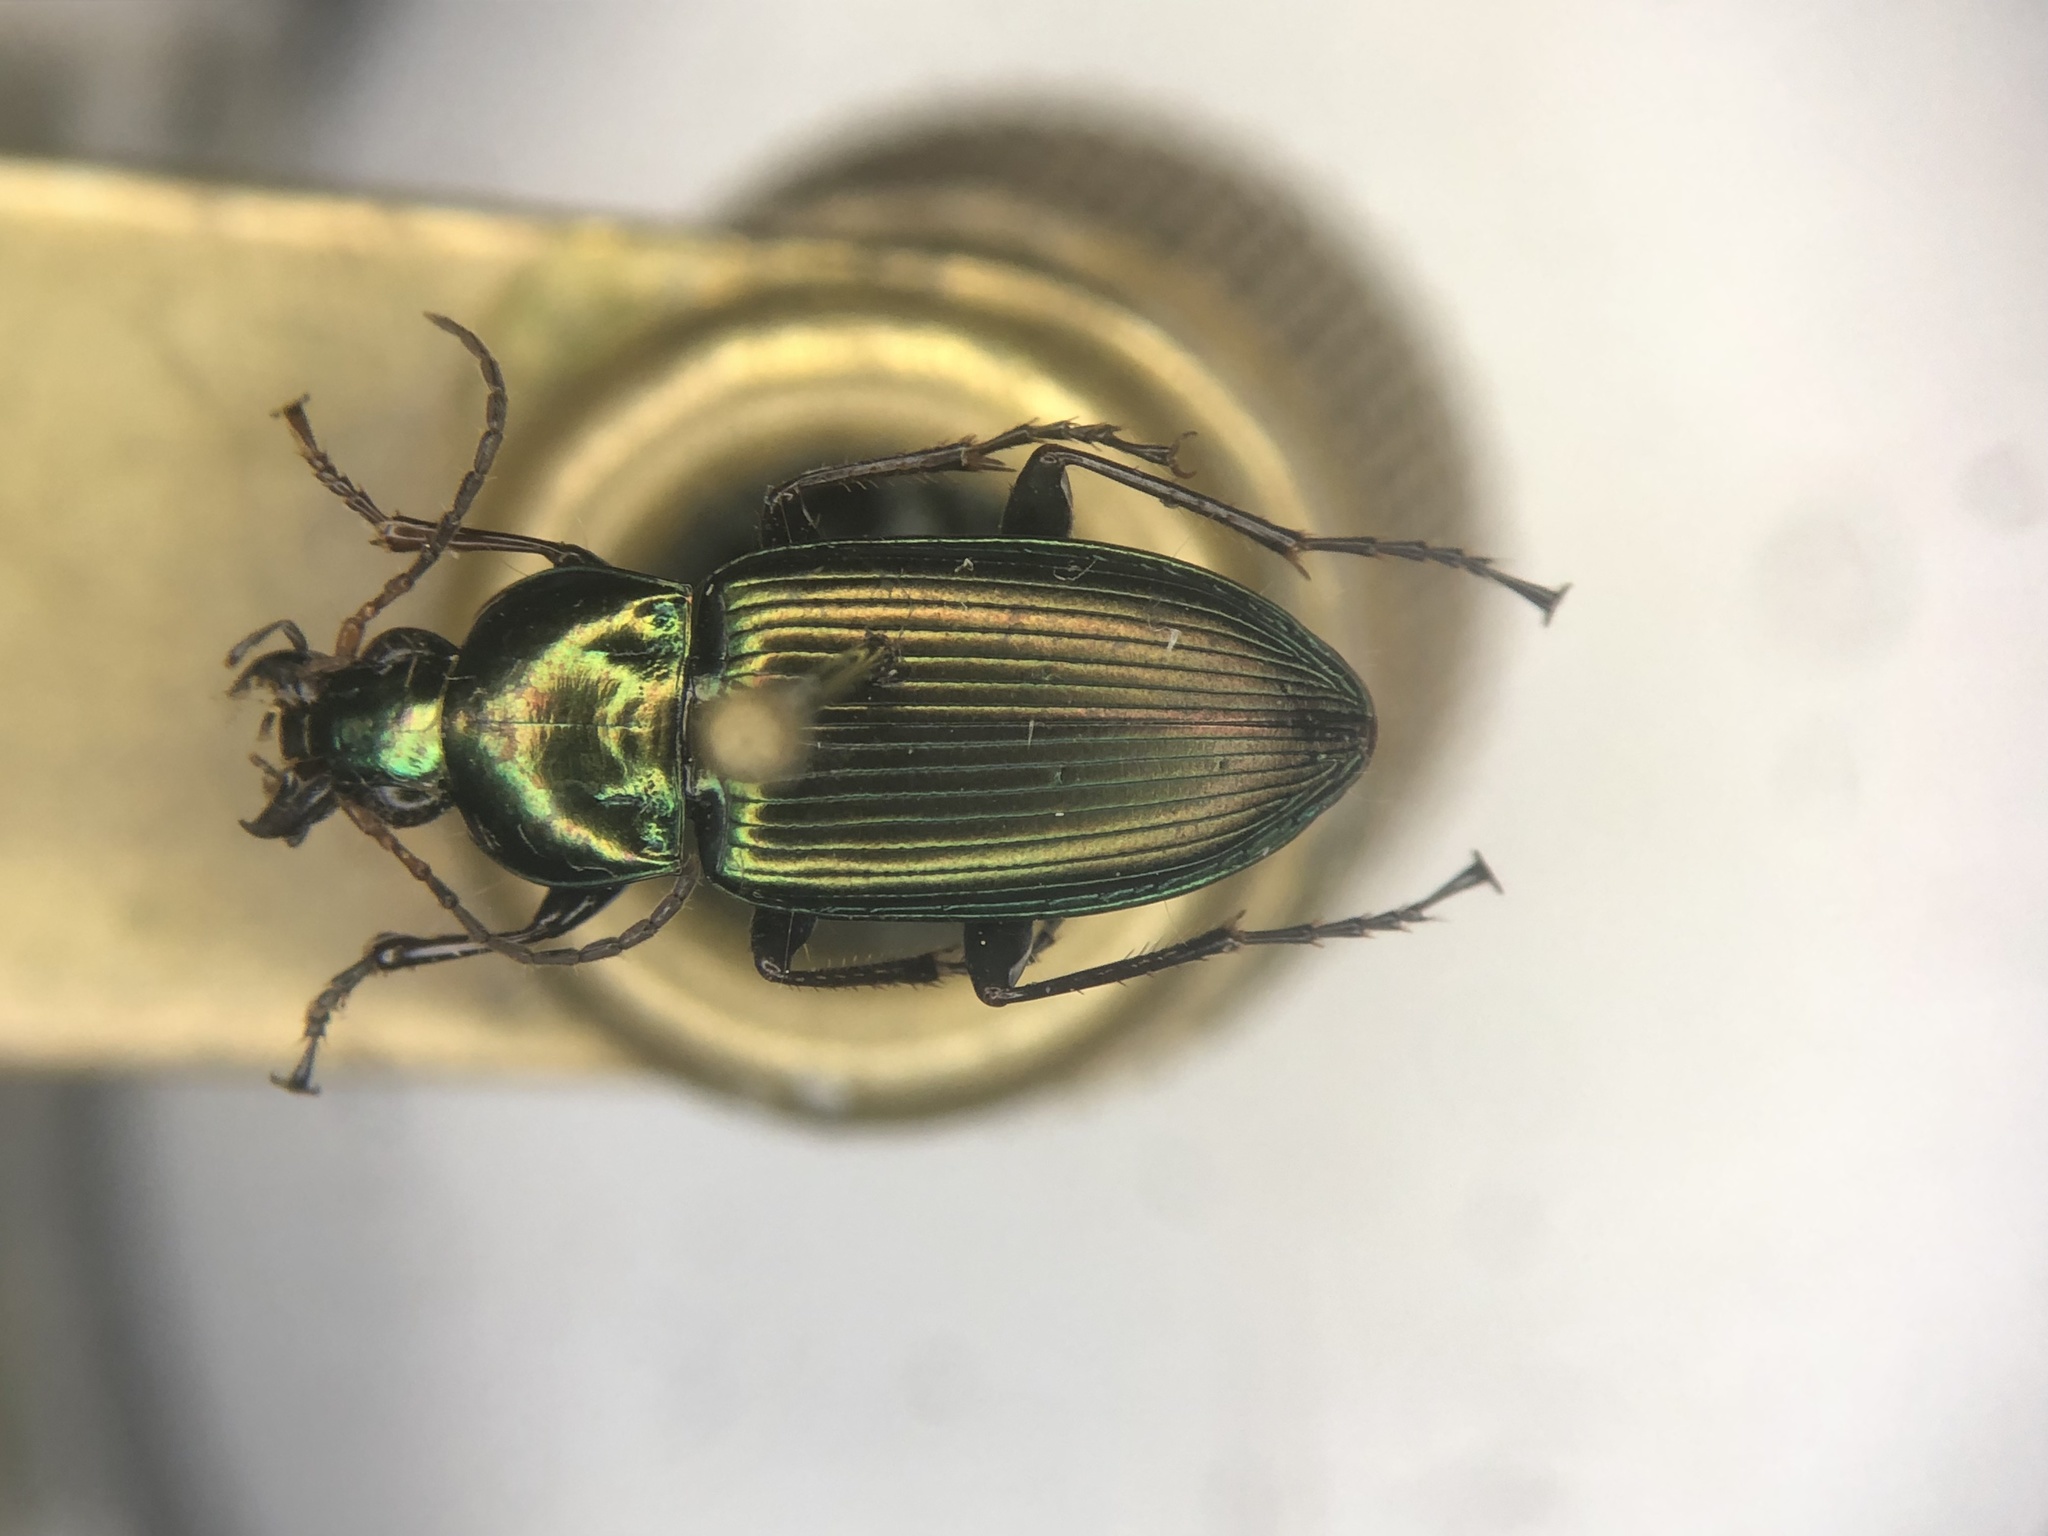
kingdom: Animalia
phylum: Arthropoda
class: Insecta
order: Coleoptera
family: Carabidae
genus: Poecilus
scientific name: Poecilus chalcites
